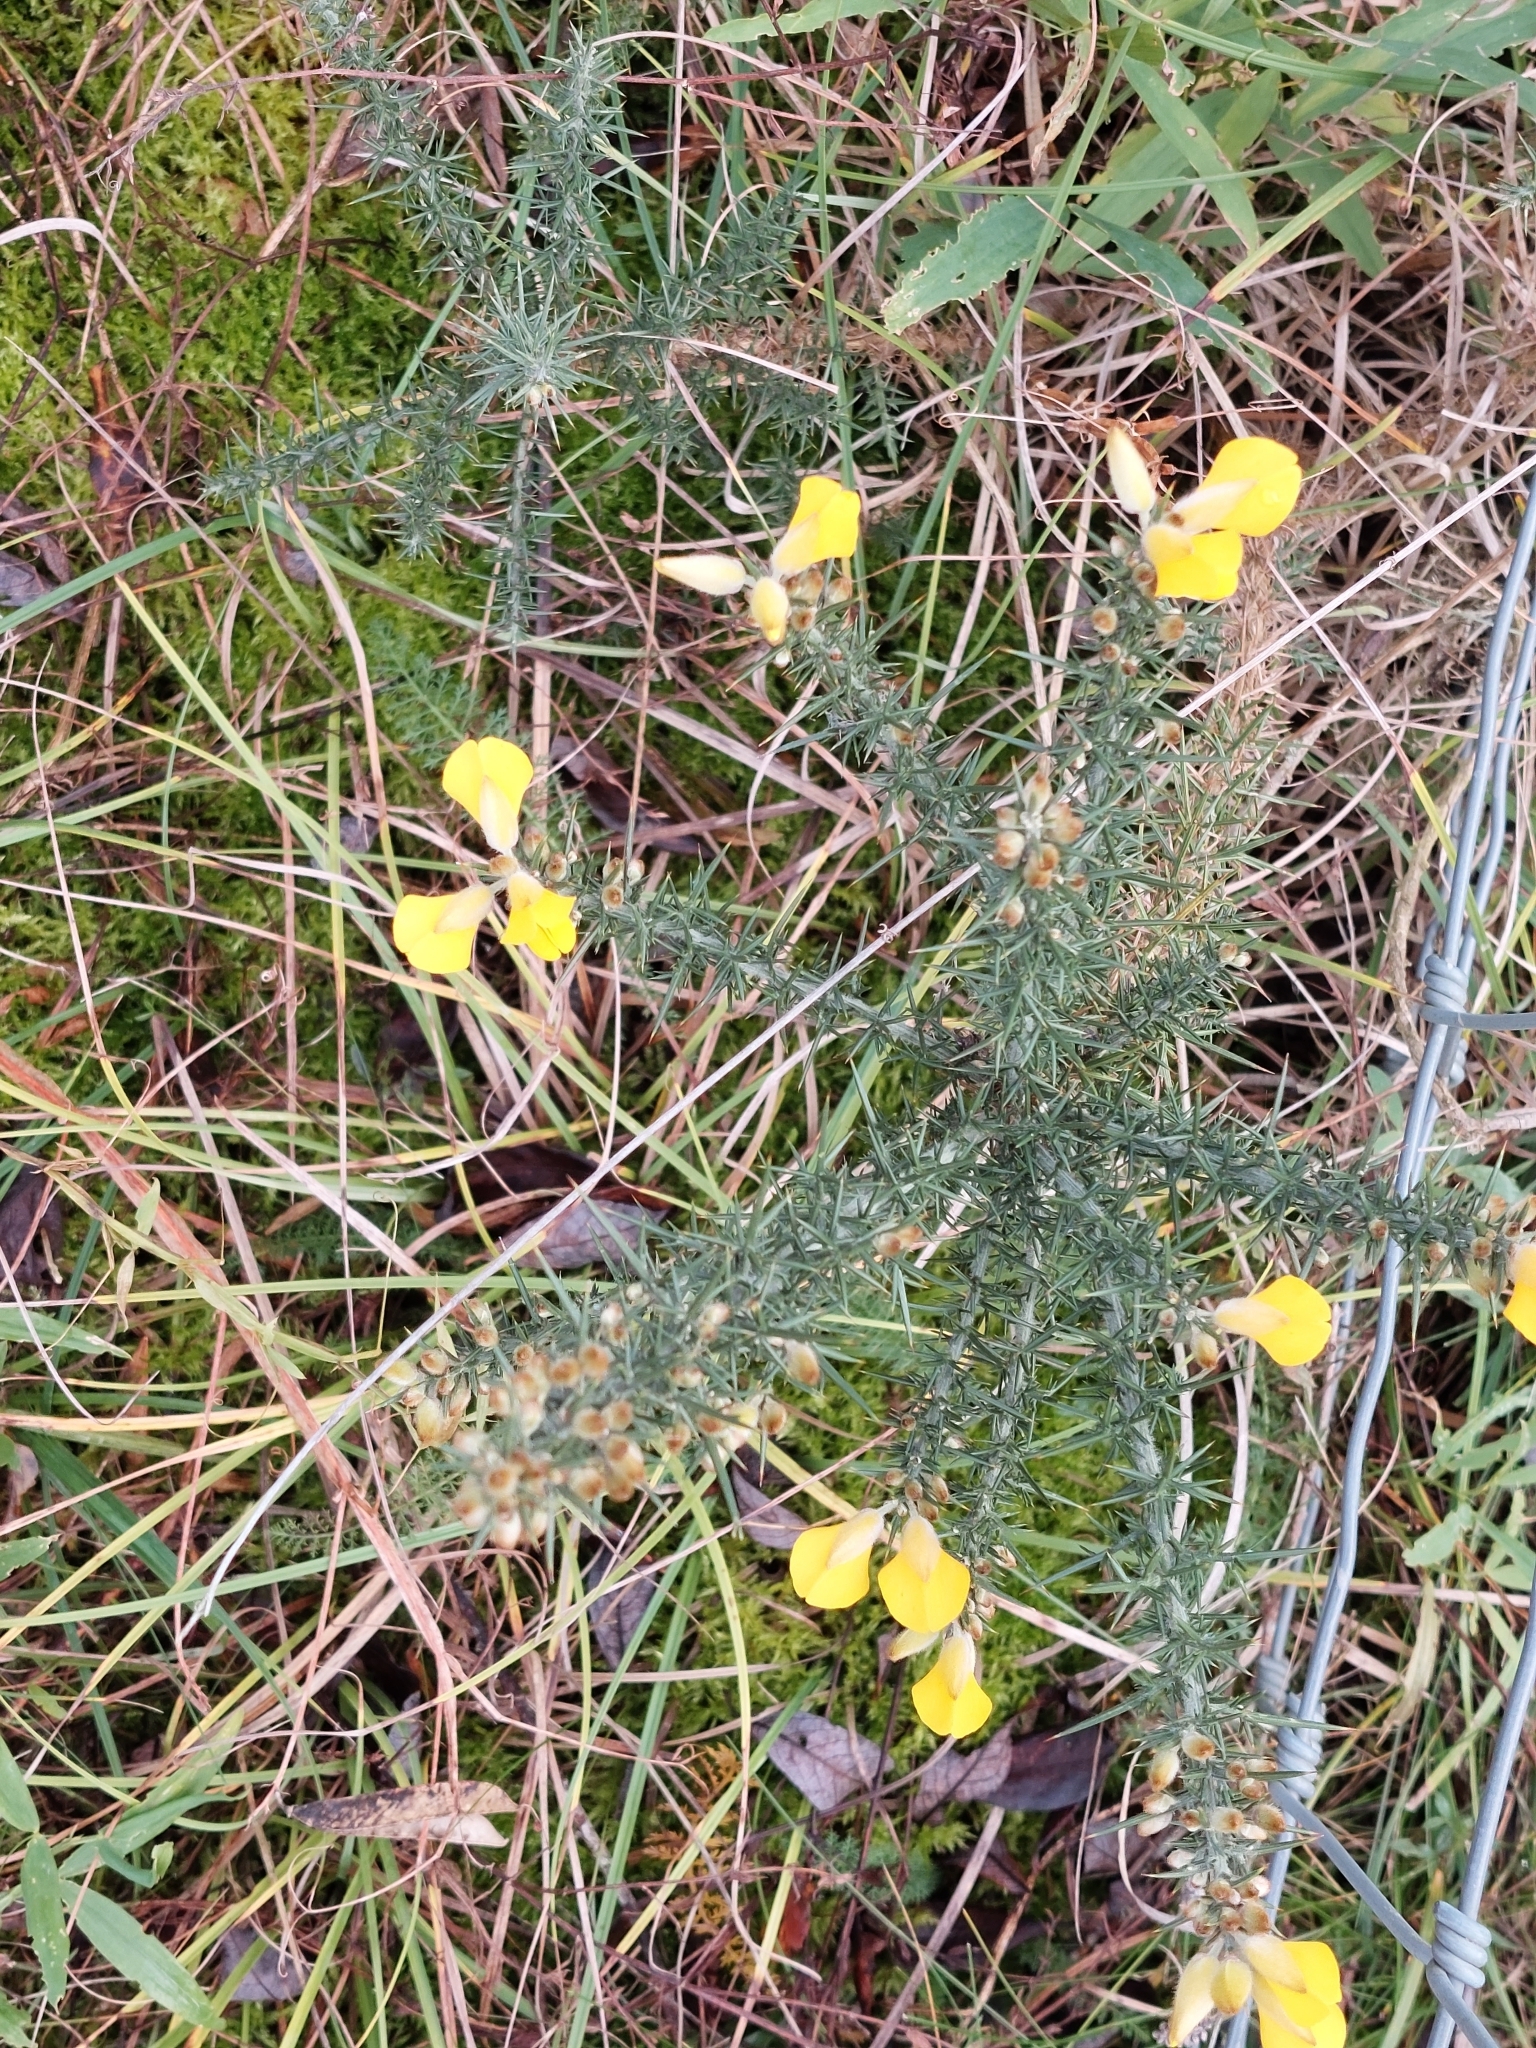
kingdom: Plantae
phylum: Tracheophyta
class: Magnoliopsida
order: Fabales
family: Fabaceae
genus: Ulex
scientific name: Ulex europaeus
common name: Common gorse
